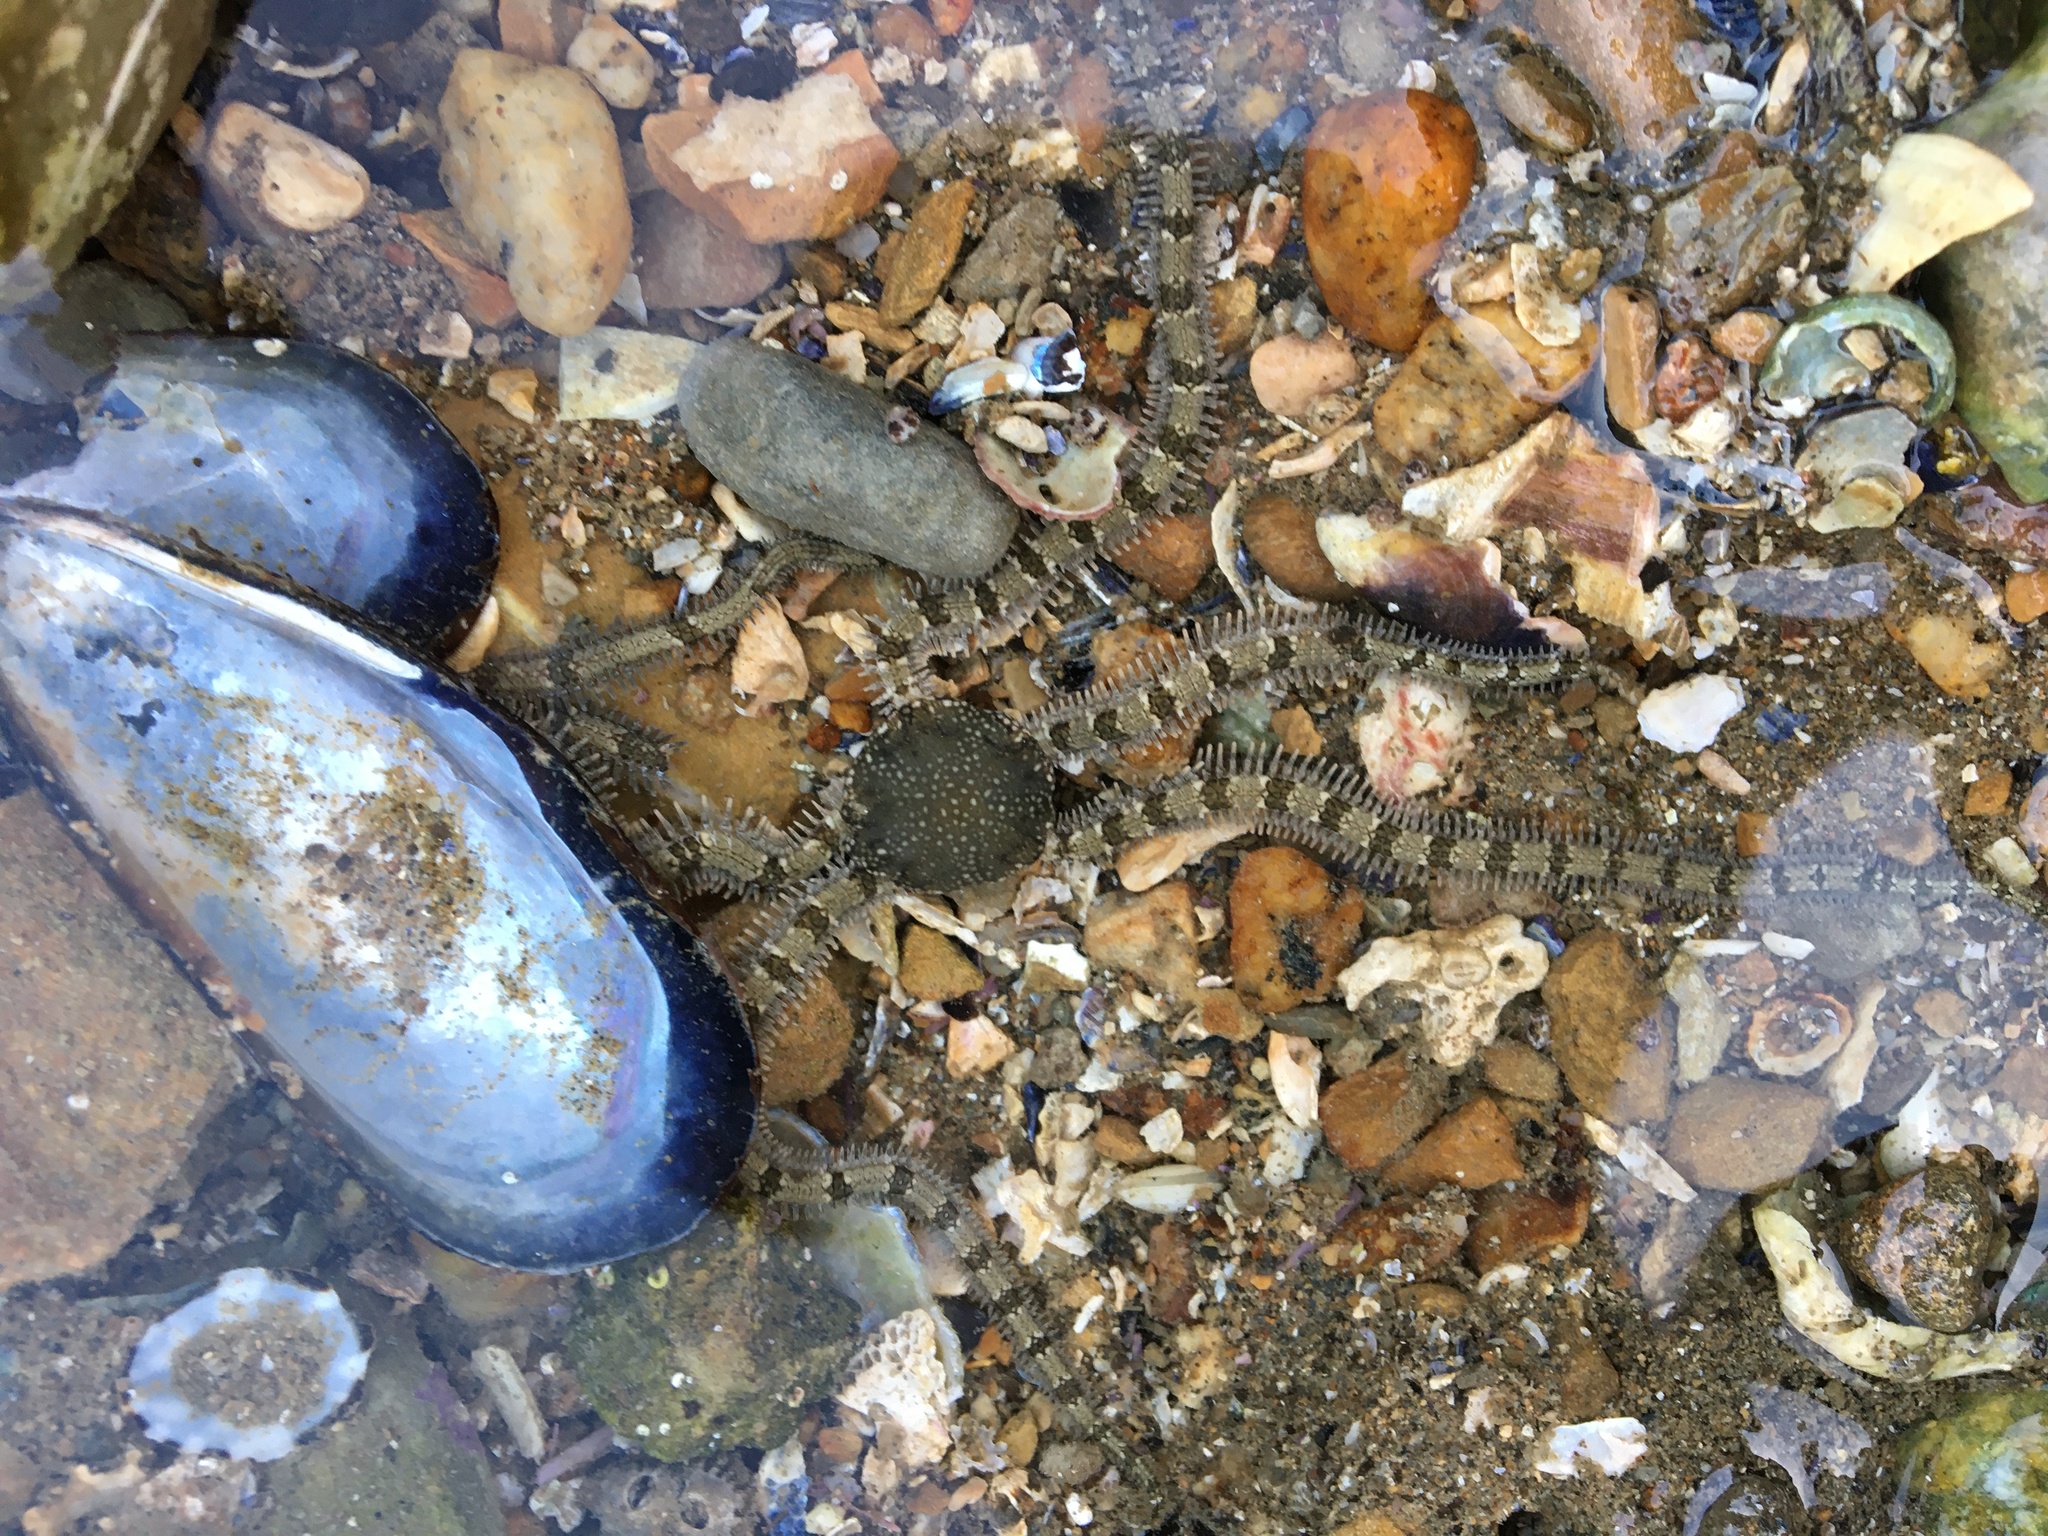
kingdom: Animalia
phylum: Echinodermata
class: Ophiuroidea
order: Amphilepidida
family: Ophionereididae
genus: Ophionereis
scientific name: Ophionereis annulata
